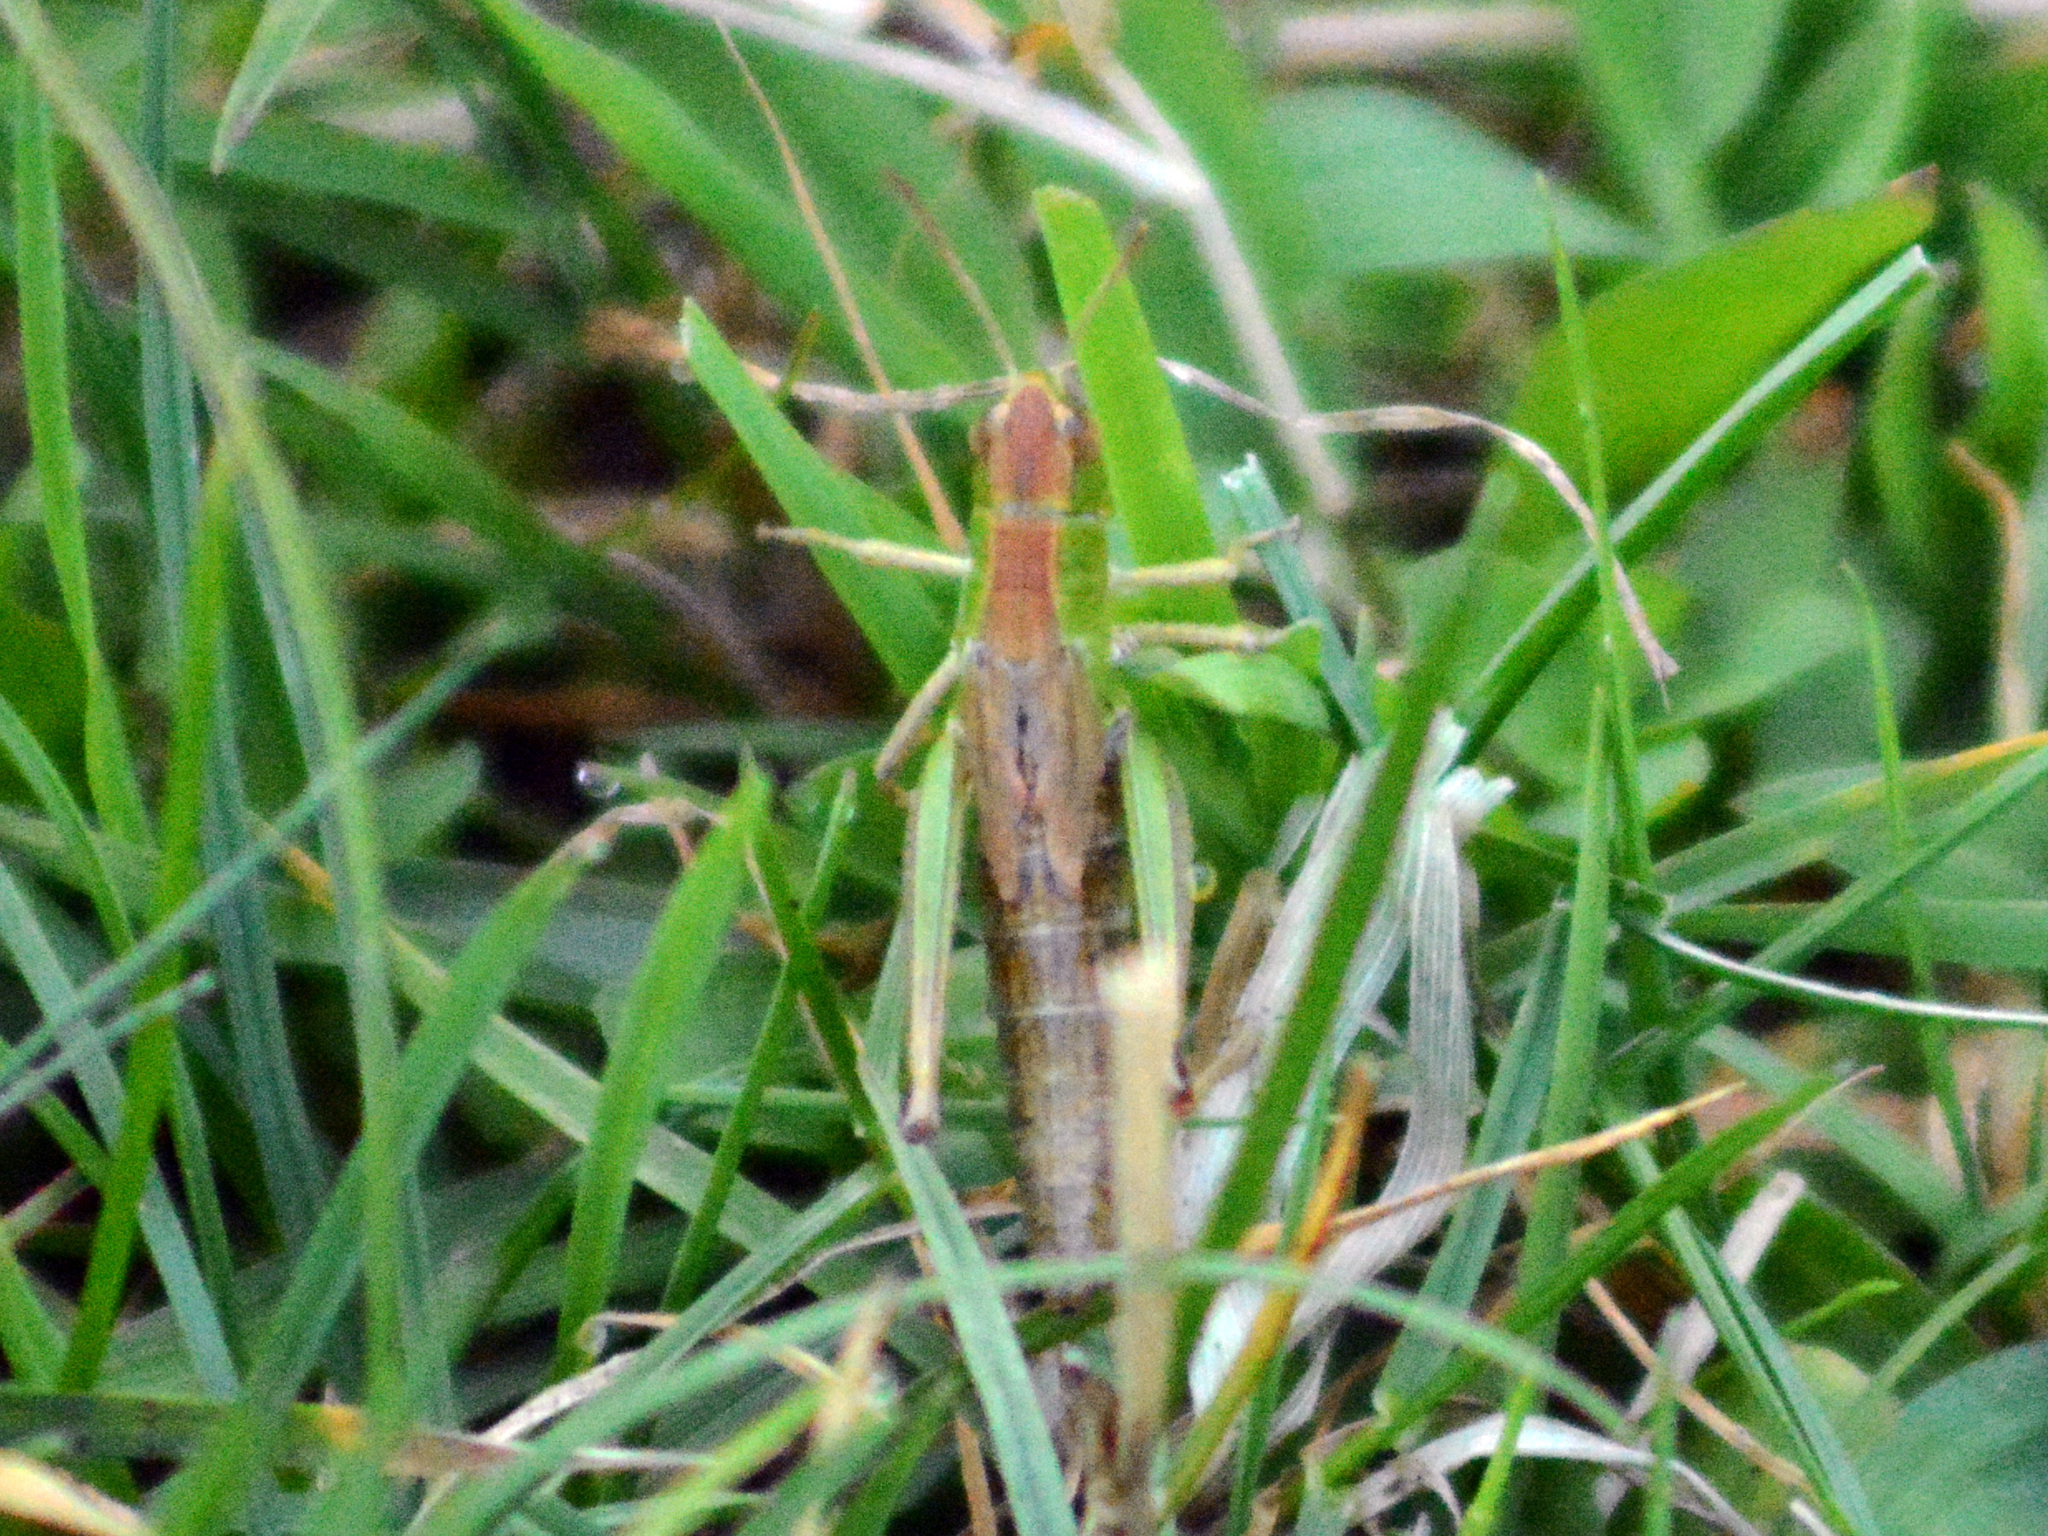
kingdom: Animalia
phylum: Arthropoda
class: Insecta
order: Orthoptera
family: Acrididae
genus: Pseudochorthippus
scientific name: Pseudochorthippus parallelus
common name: Meadow grasshopper
